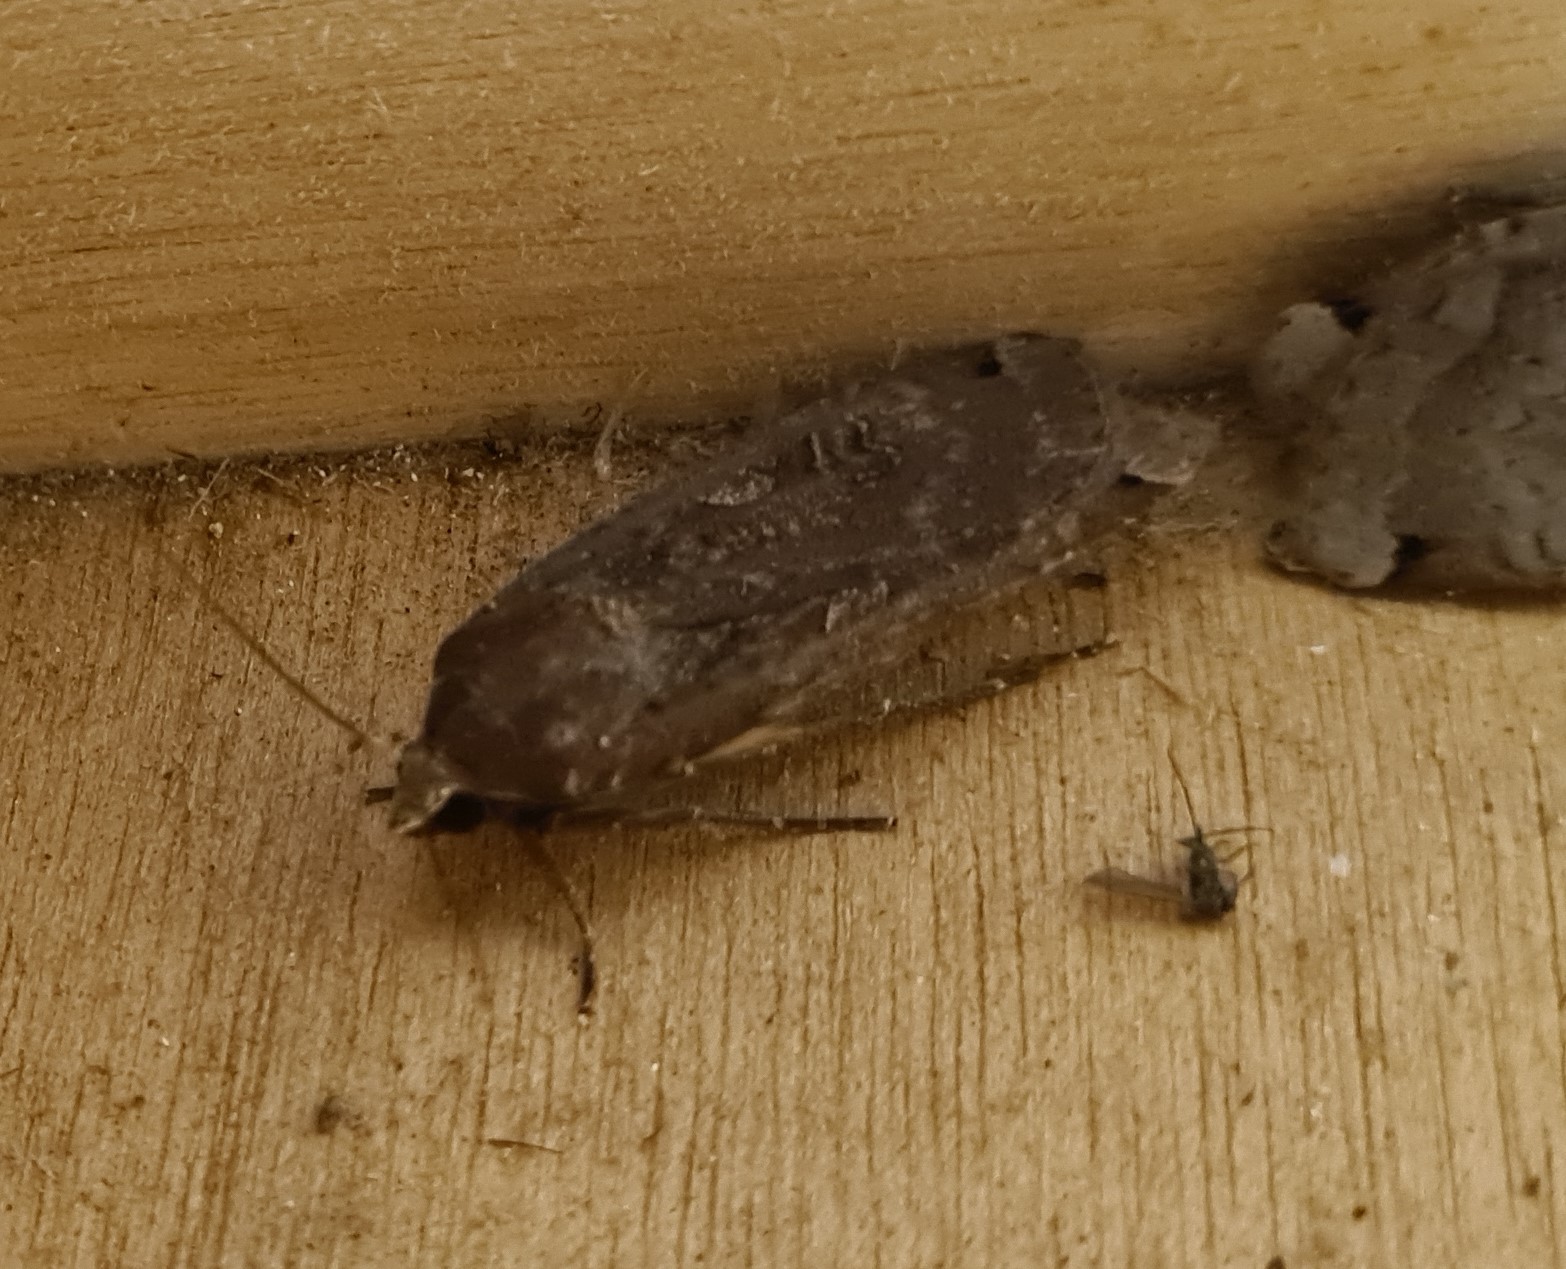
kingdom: Animalia
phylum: Arthropoda
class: Insecta
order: Lepidoptera
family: Noctuidae
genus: Noctua
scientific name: Noctua pronuba
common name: Large yellow underwing
